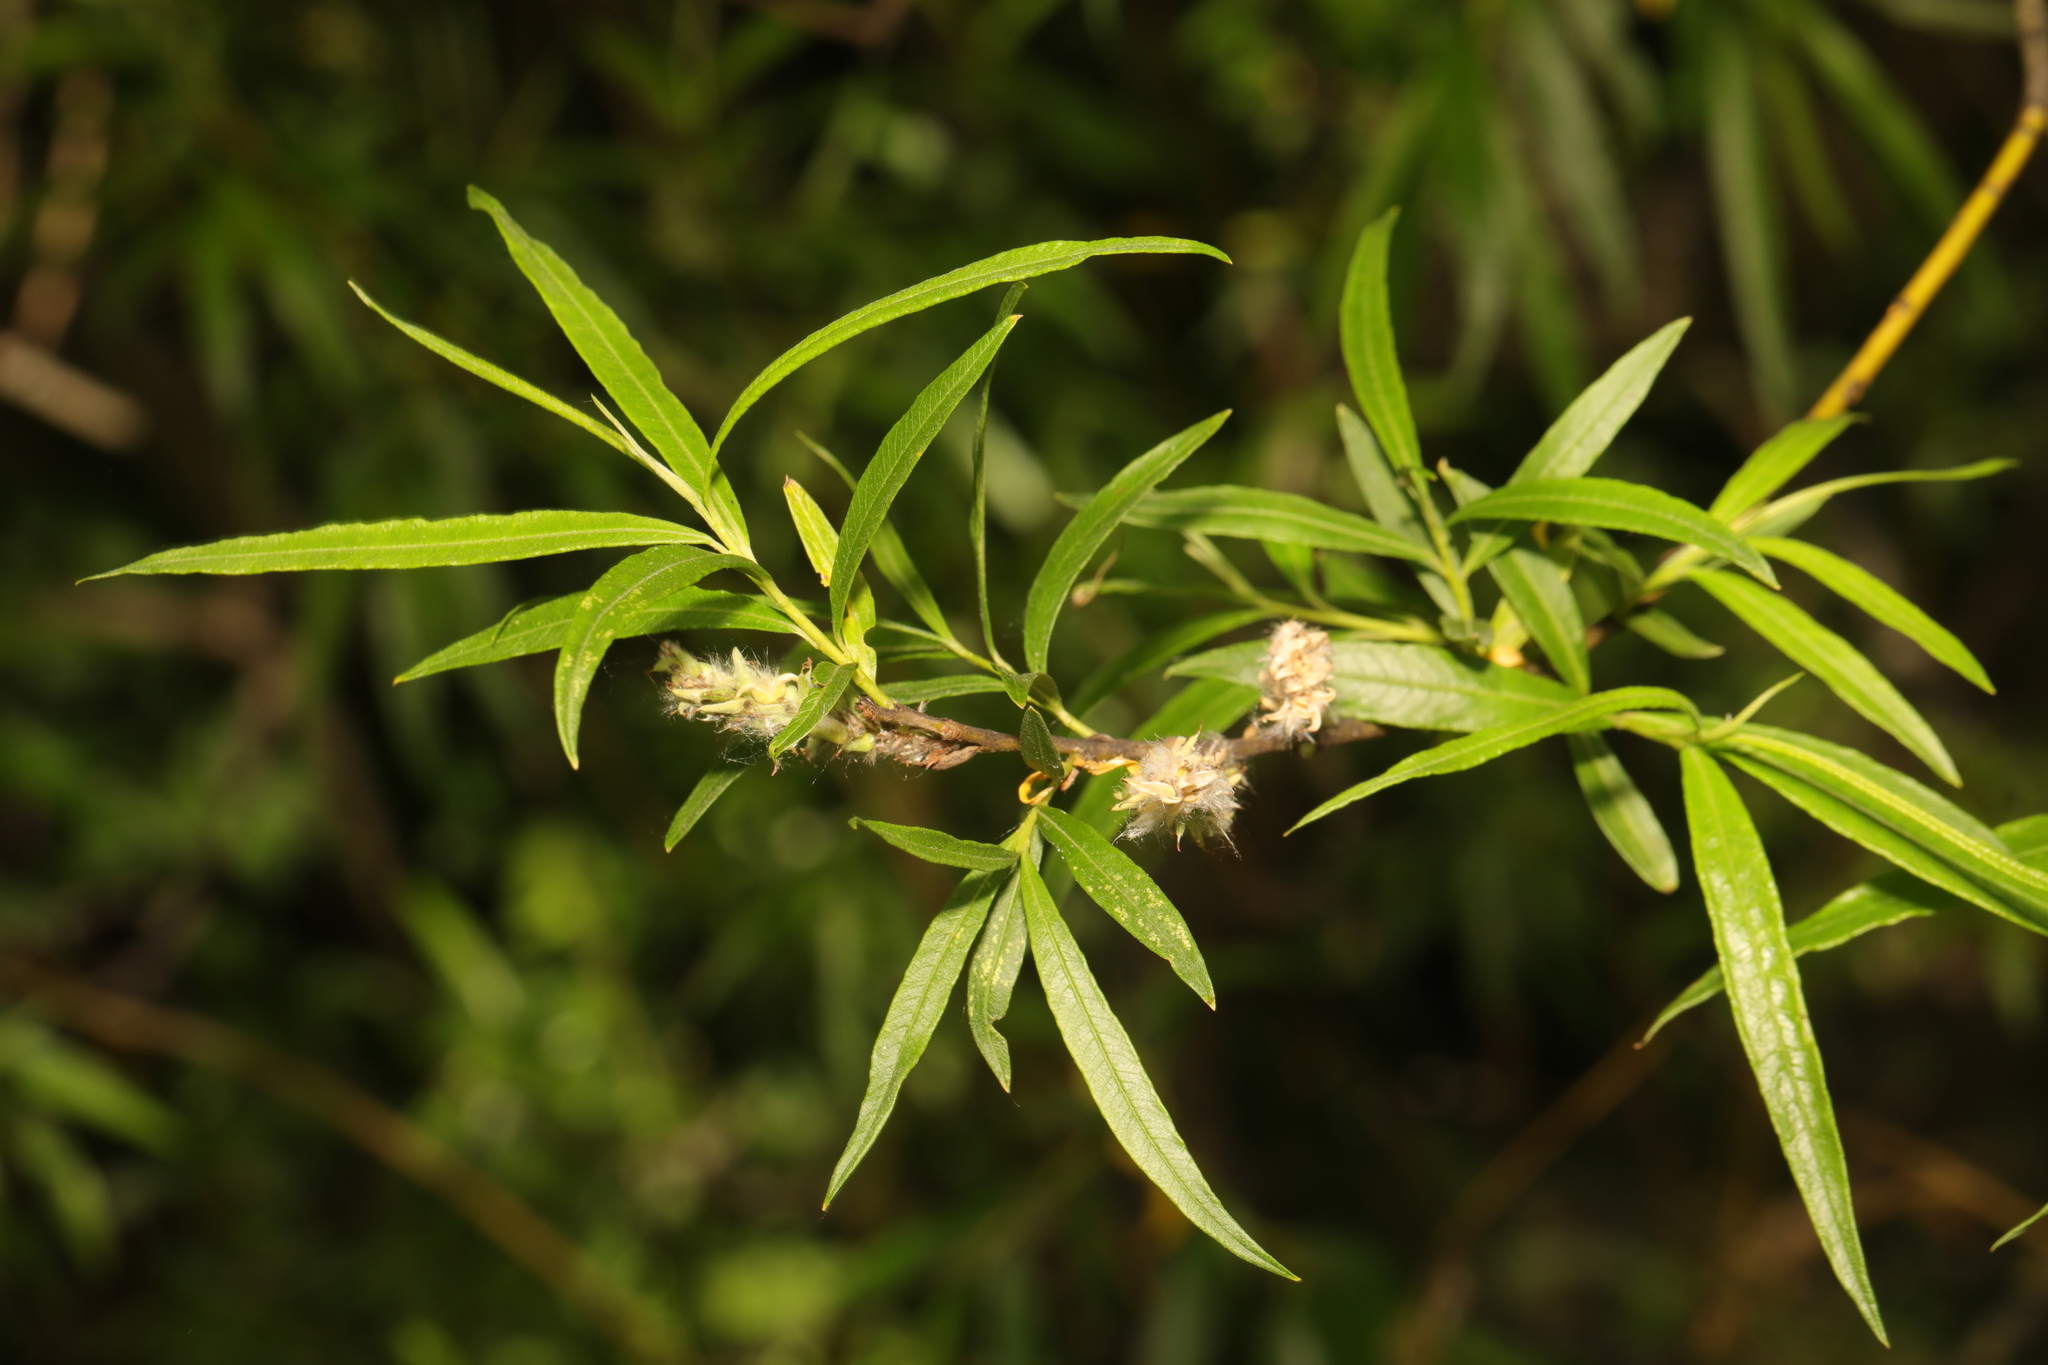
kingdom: Plantae
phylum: Tracheophyta
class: Magnoliopsida
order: Malpighiales
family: Salicaceae
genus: Salix
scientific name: Salix viminalis
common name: Osier
